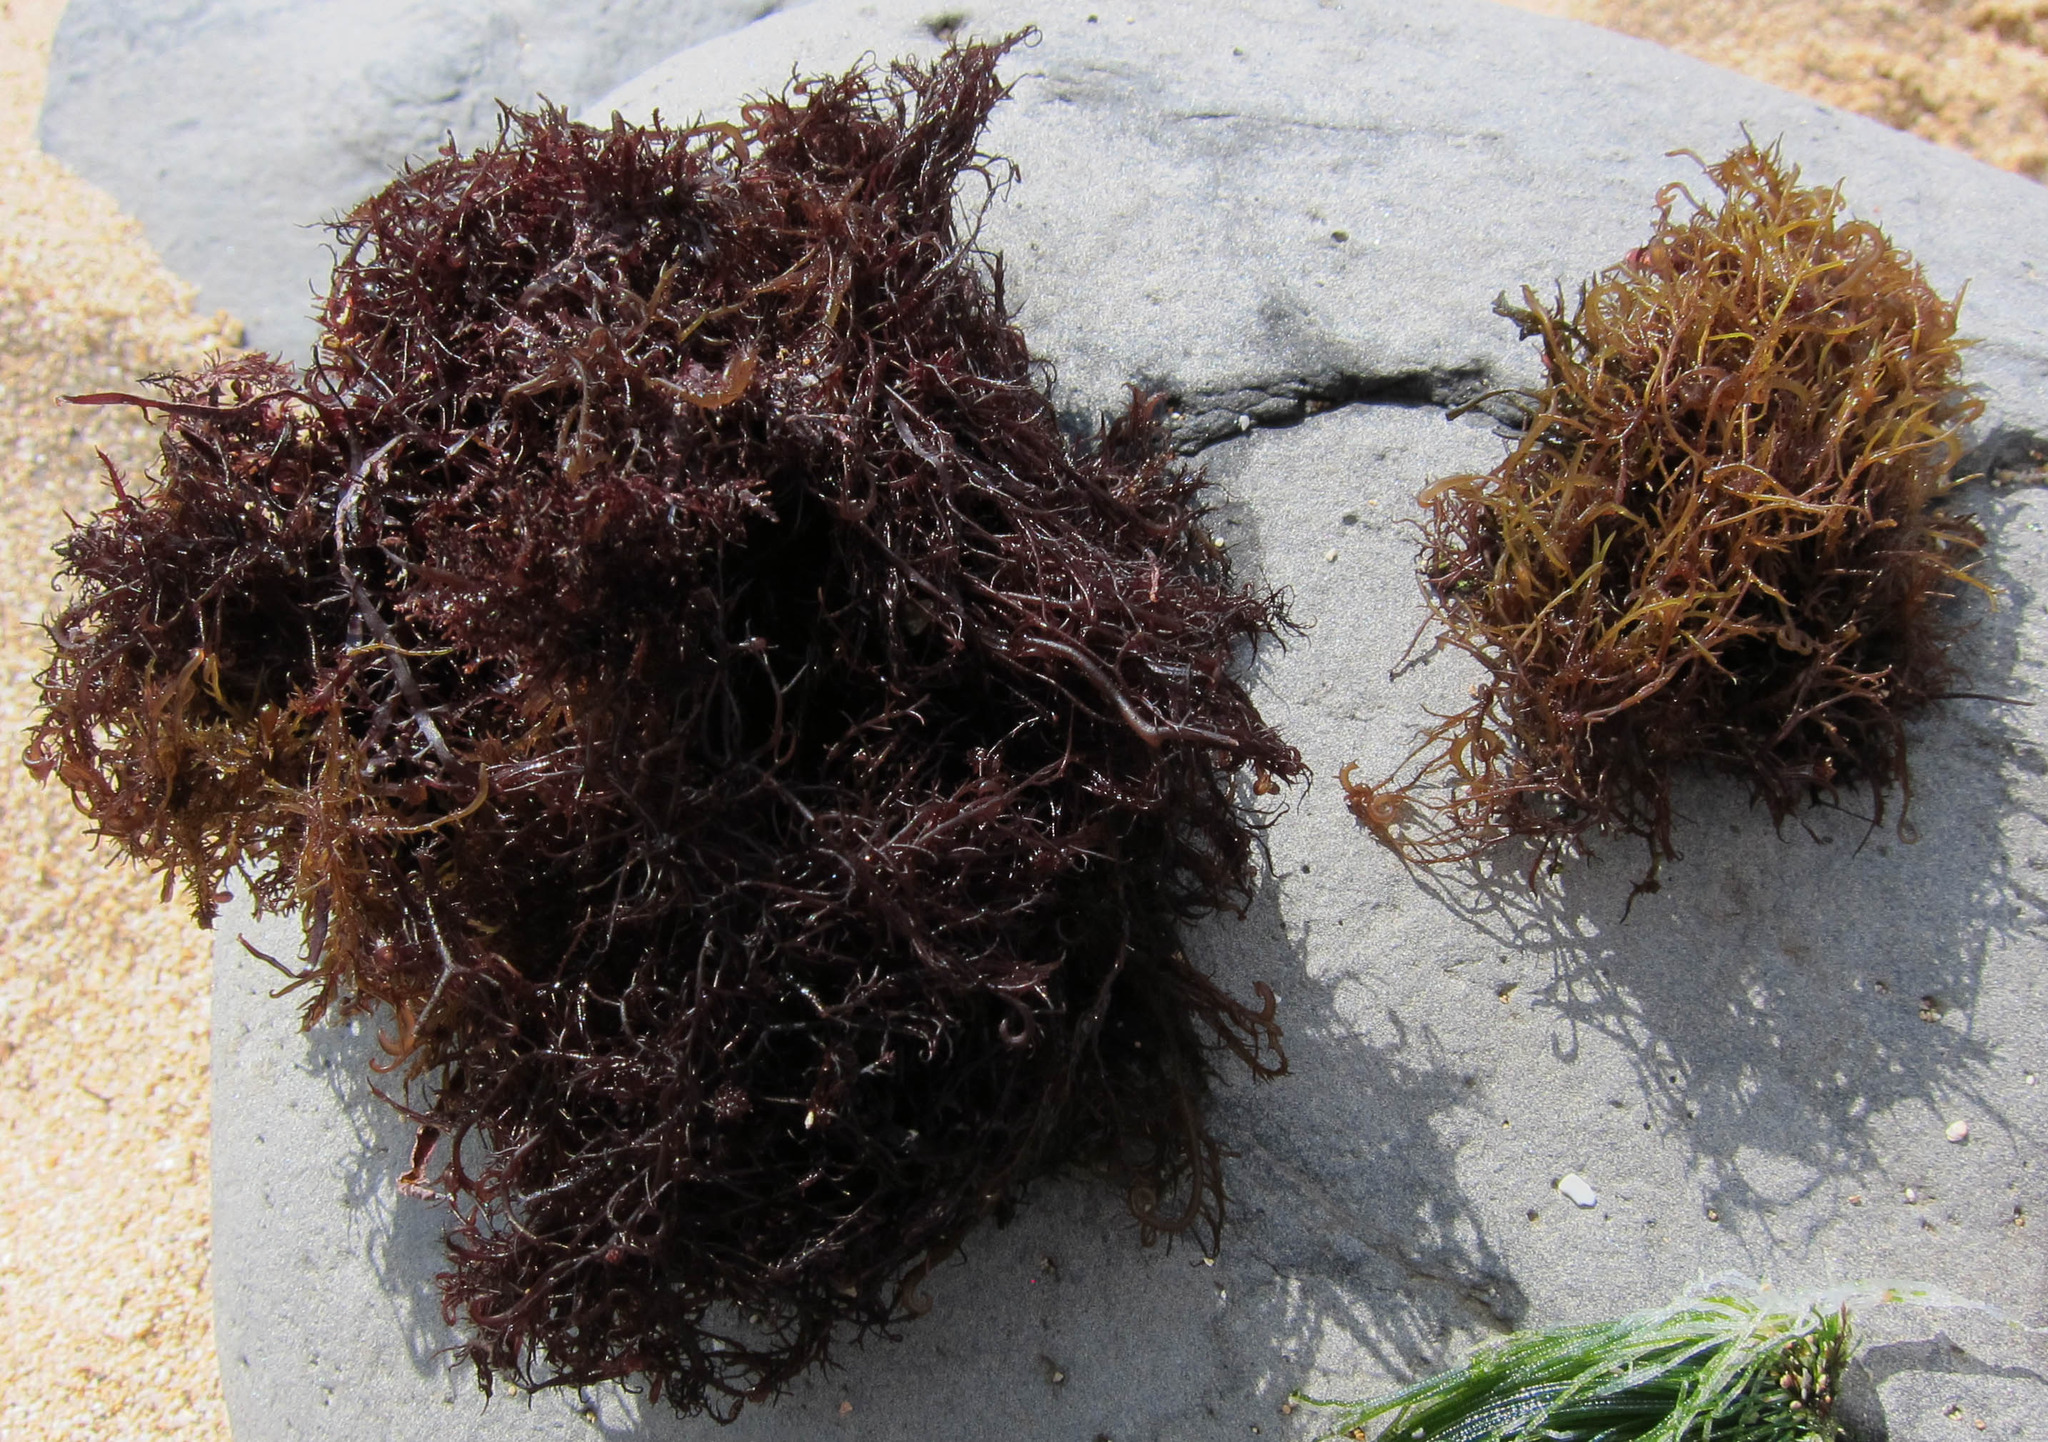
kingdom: Plantae
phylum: Rhodophyta
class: Florideophyceae
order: Gigartinales
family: Cystocloniaceae
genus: Hypnea
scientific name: Hypnea musciformis
